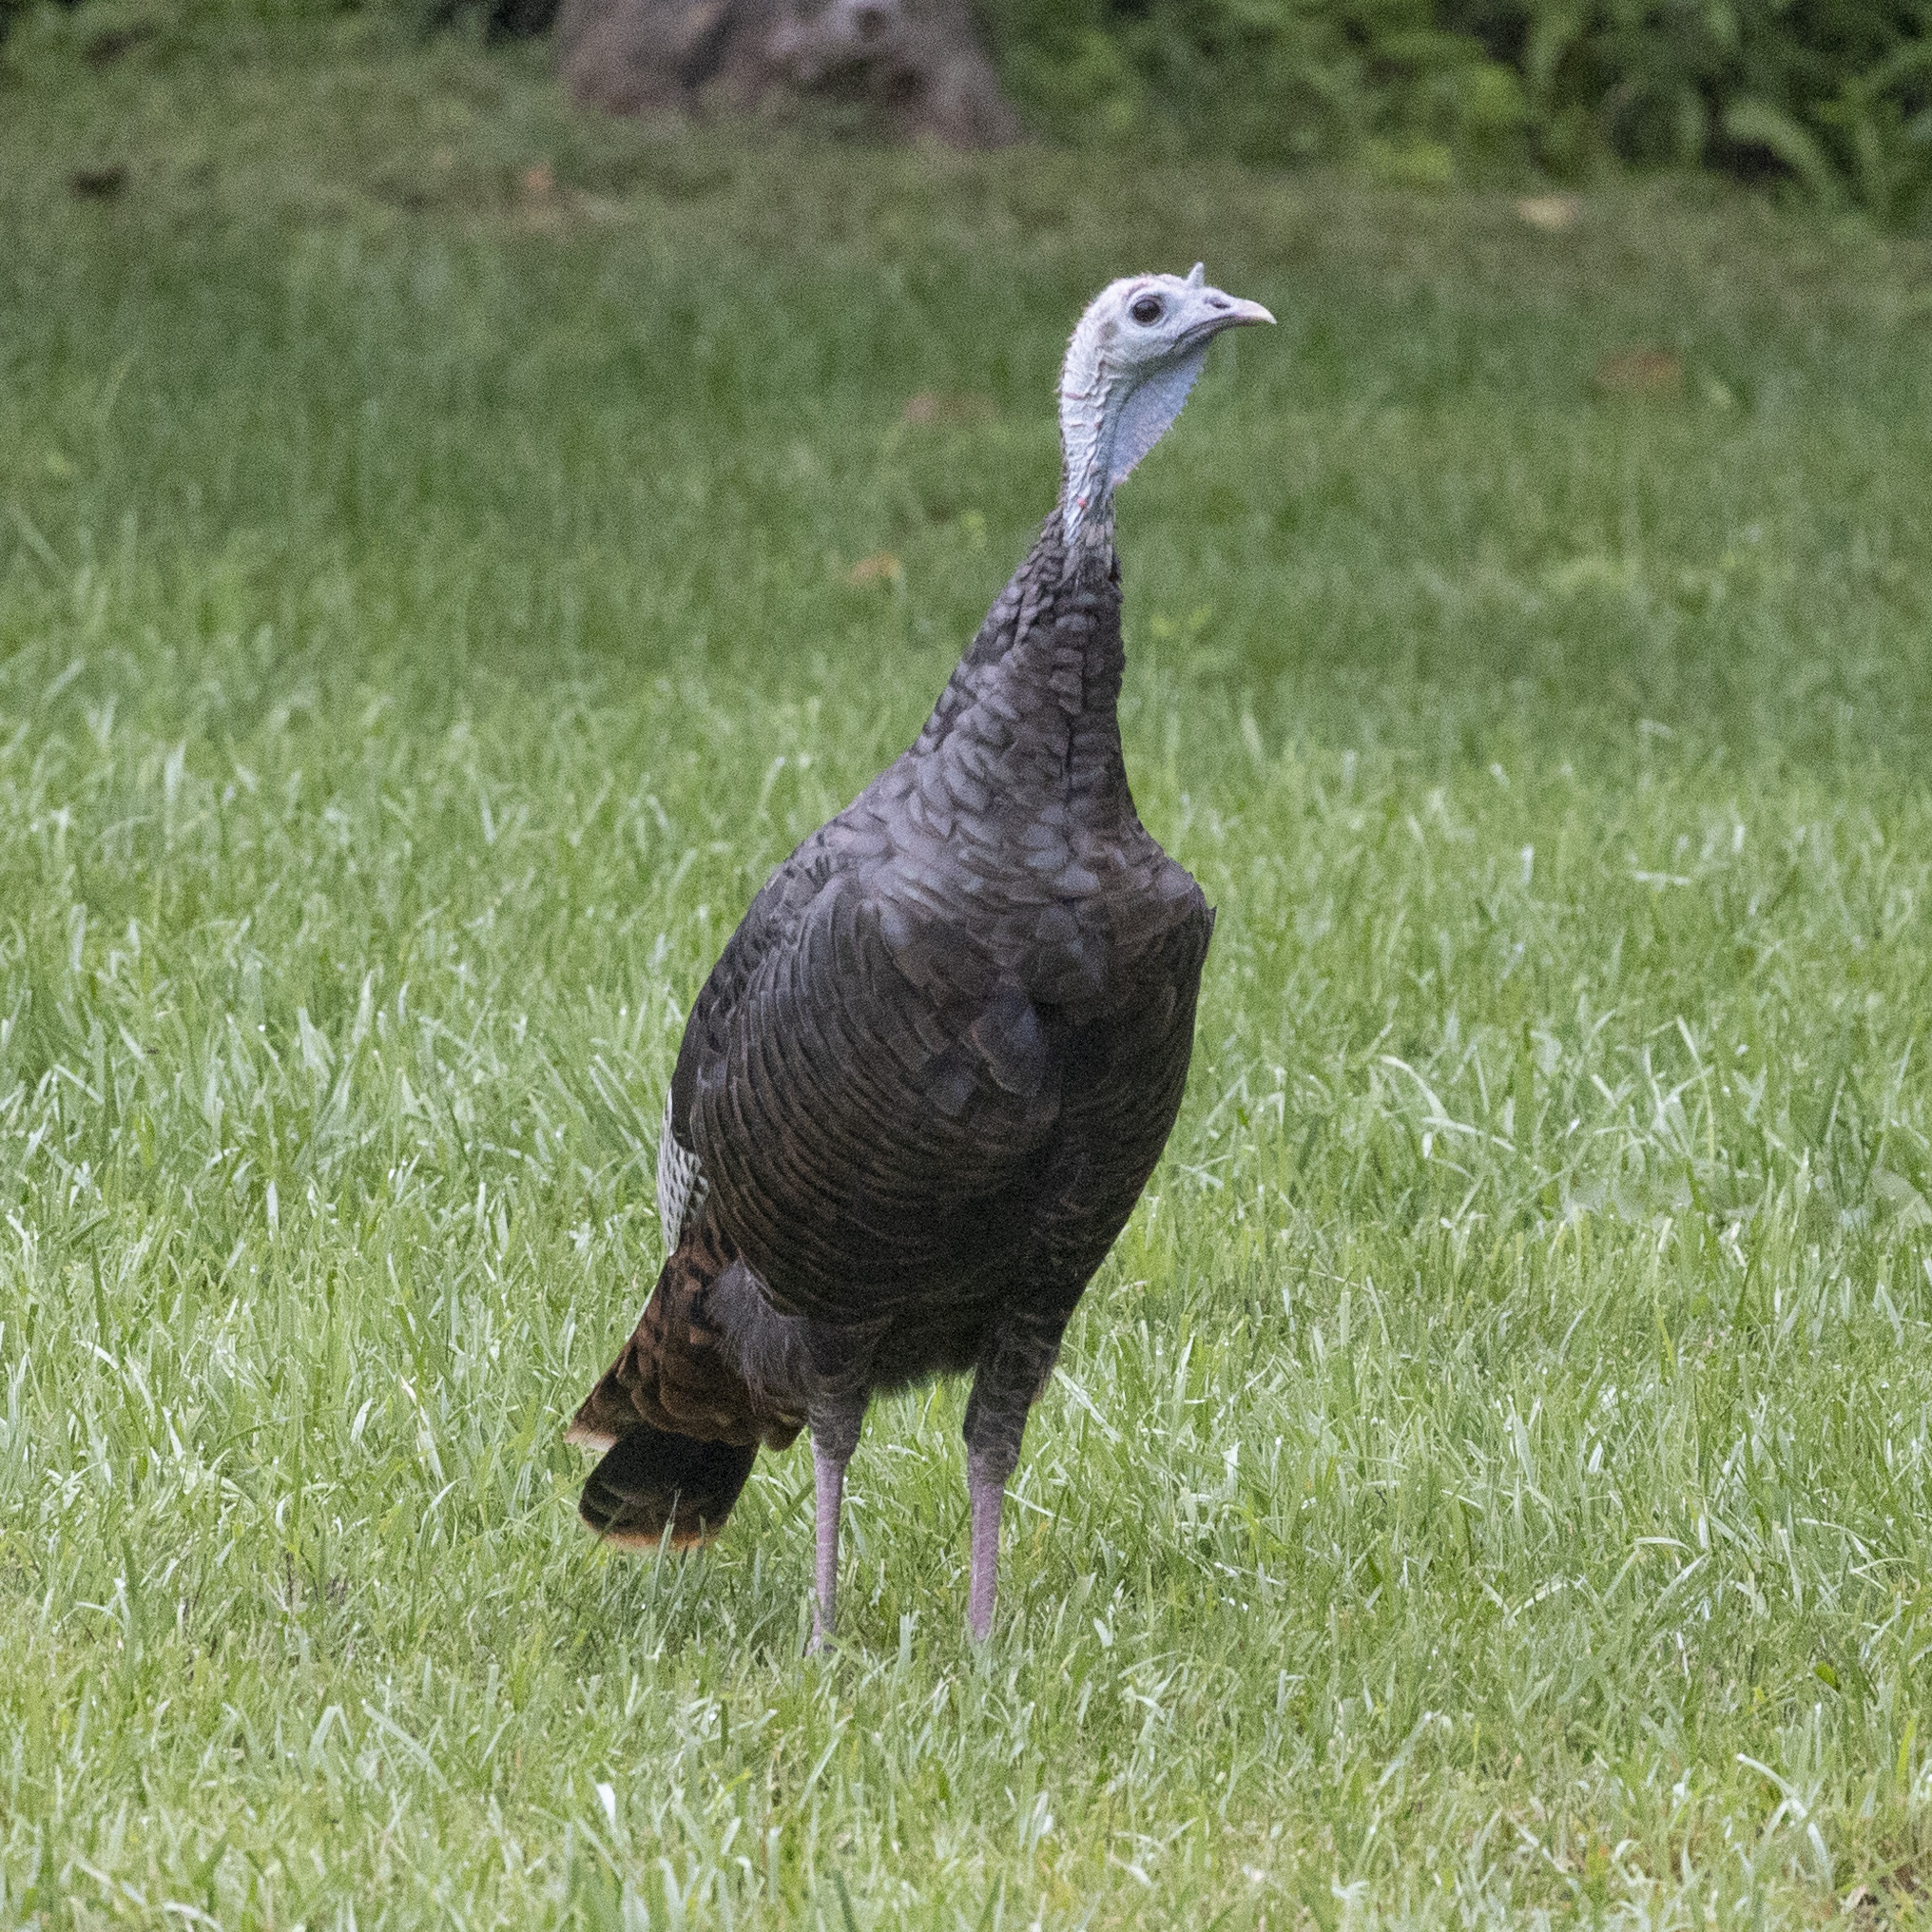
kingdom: Animalia
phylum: Chordata
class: Aves
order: Galliformes
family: Phasianidae
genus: Meleagris
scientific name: Meleagris gallopavo
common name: Wild turkey
